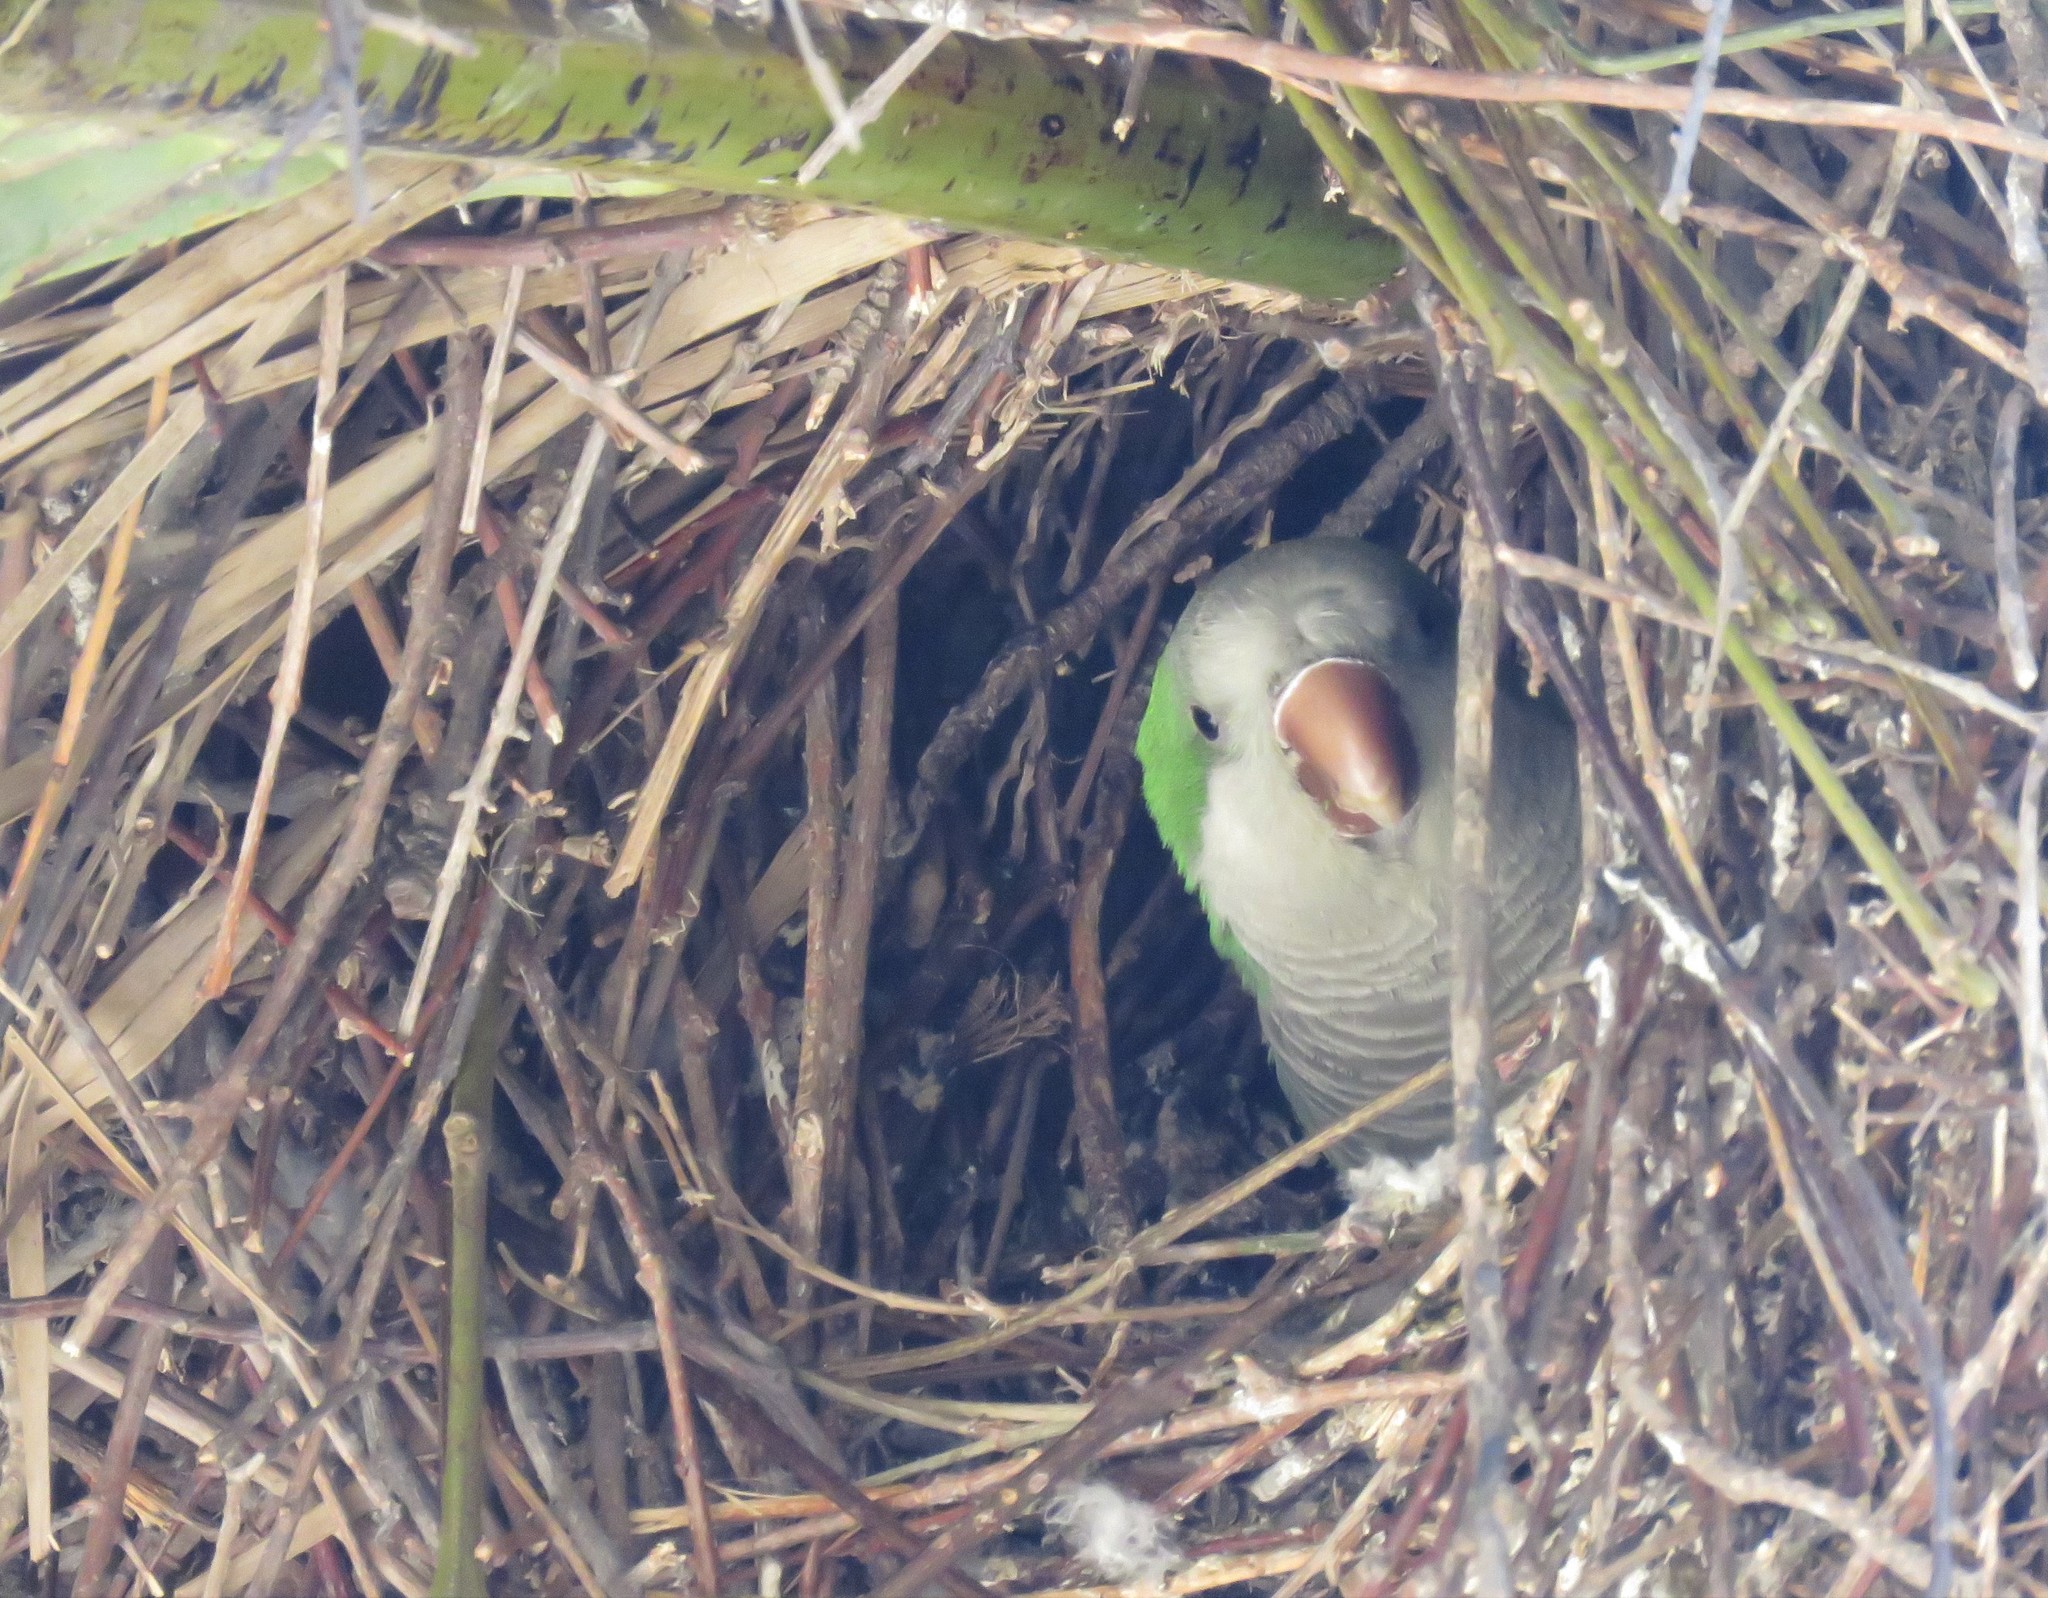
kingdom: Animalia
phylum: Chordata
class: Aves
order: Psittaciformes
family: Psittacidae
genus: Myiopsitta
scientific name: Myiopsitta monachus
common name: Monk parakeet
